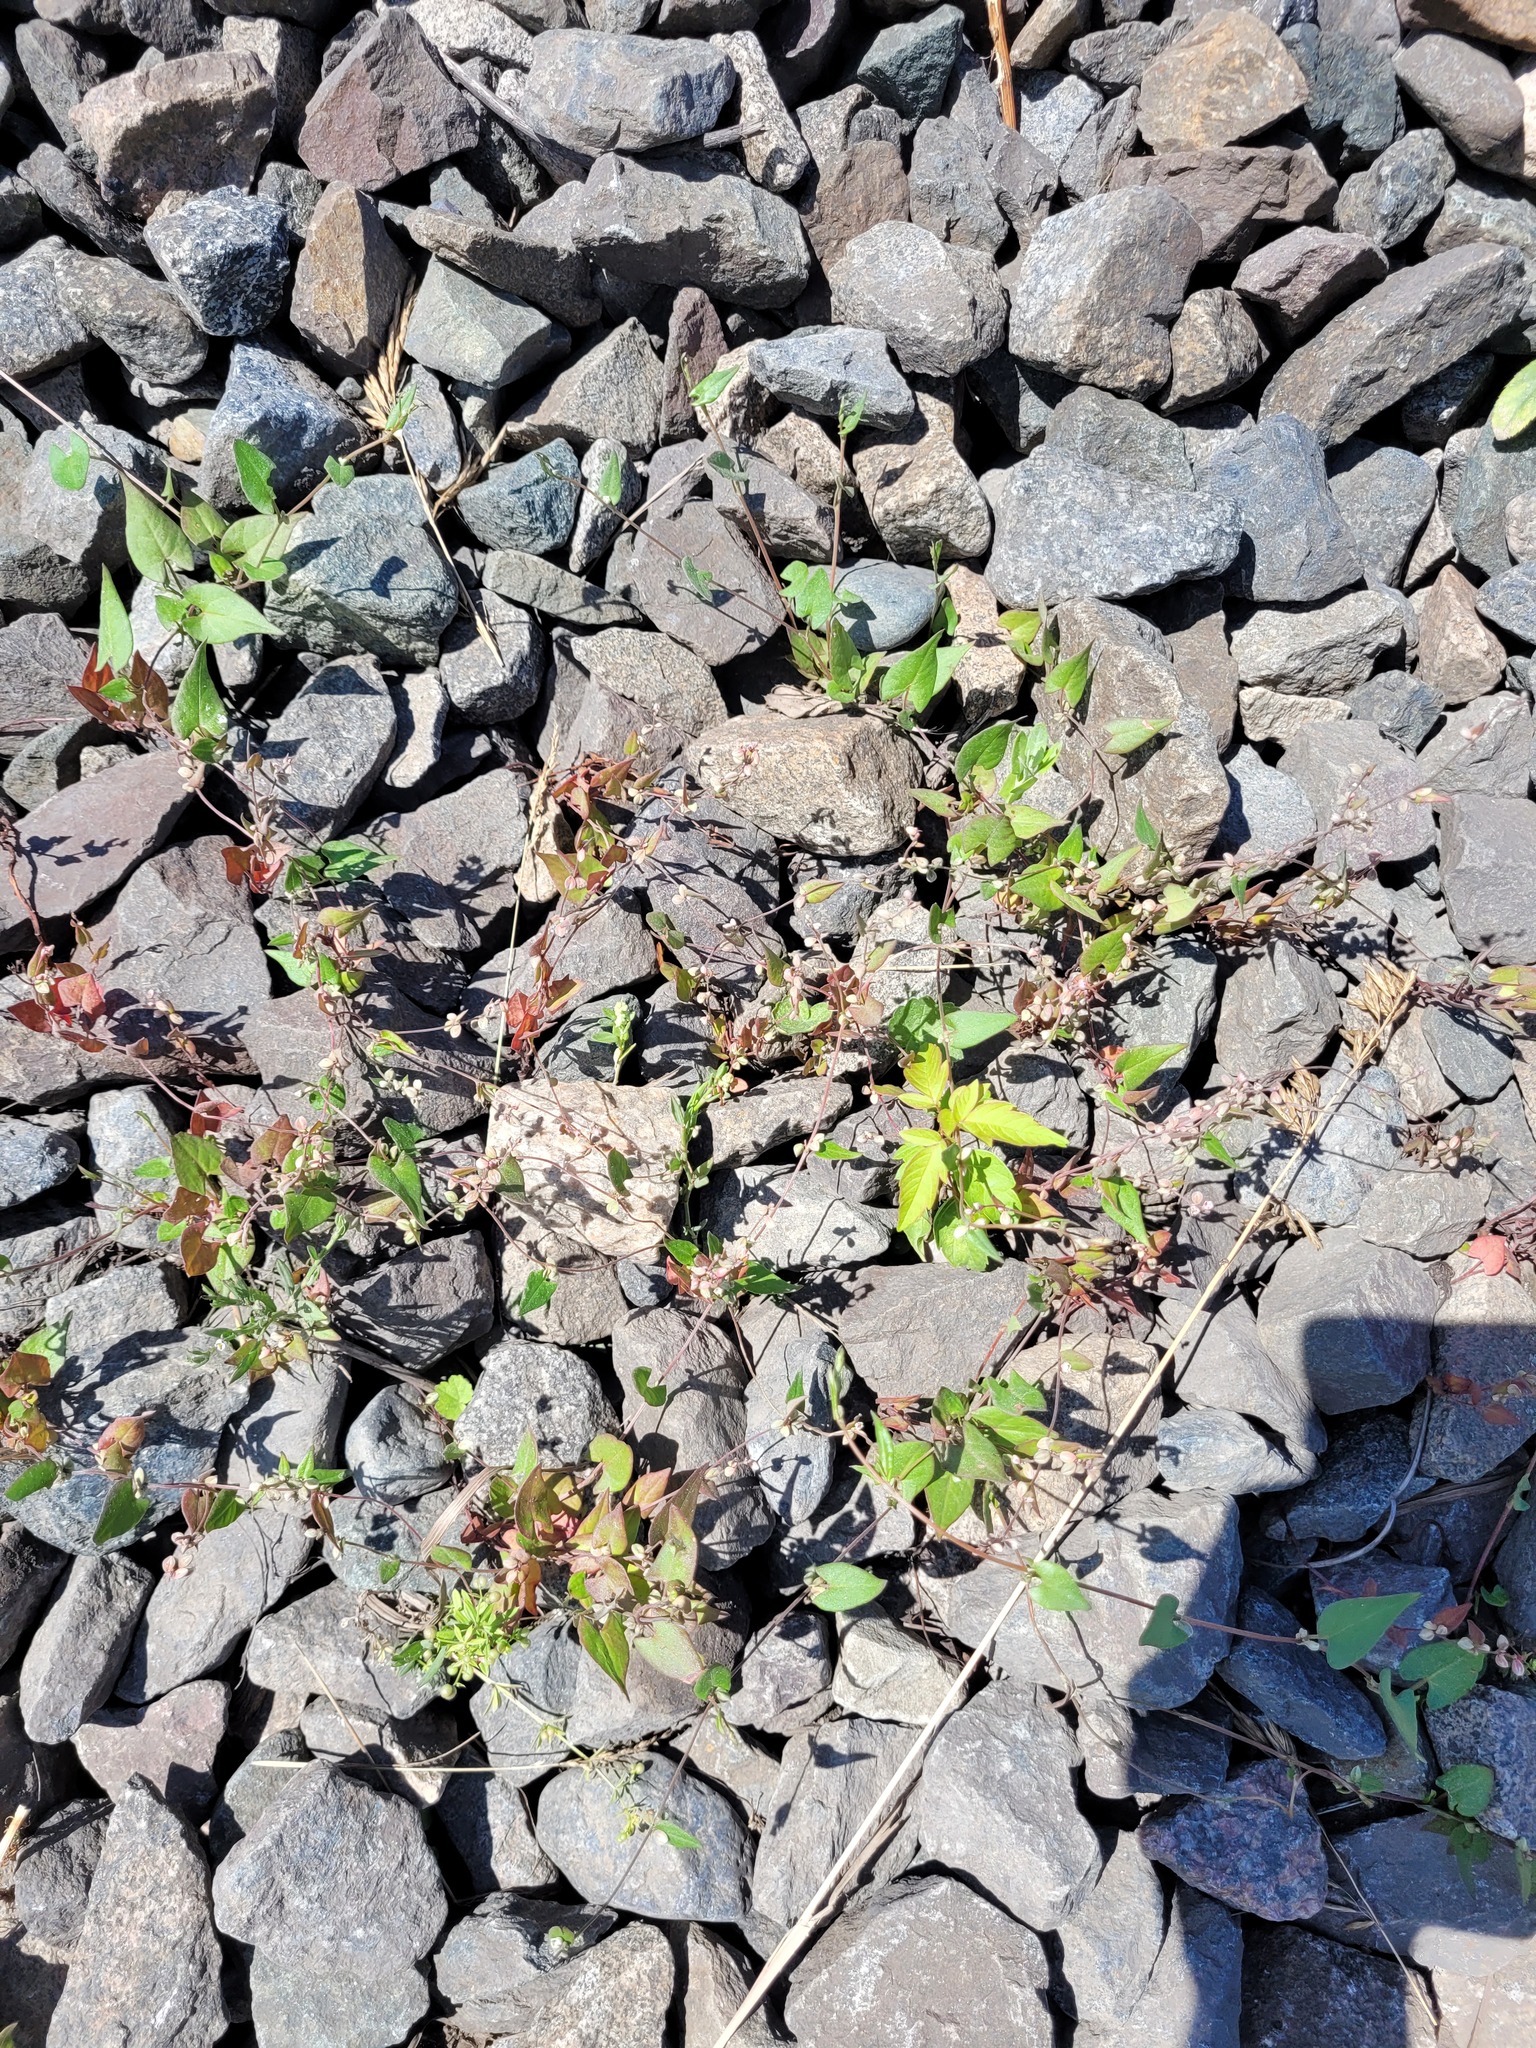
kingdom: Plantae
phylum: Tracheophyta
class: Magnoliopsida
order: Caryophyllales
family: Polygonaceae
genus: Fallopia
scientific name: Fallopia convolvulus
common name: Black bindweed
